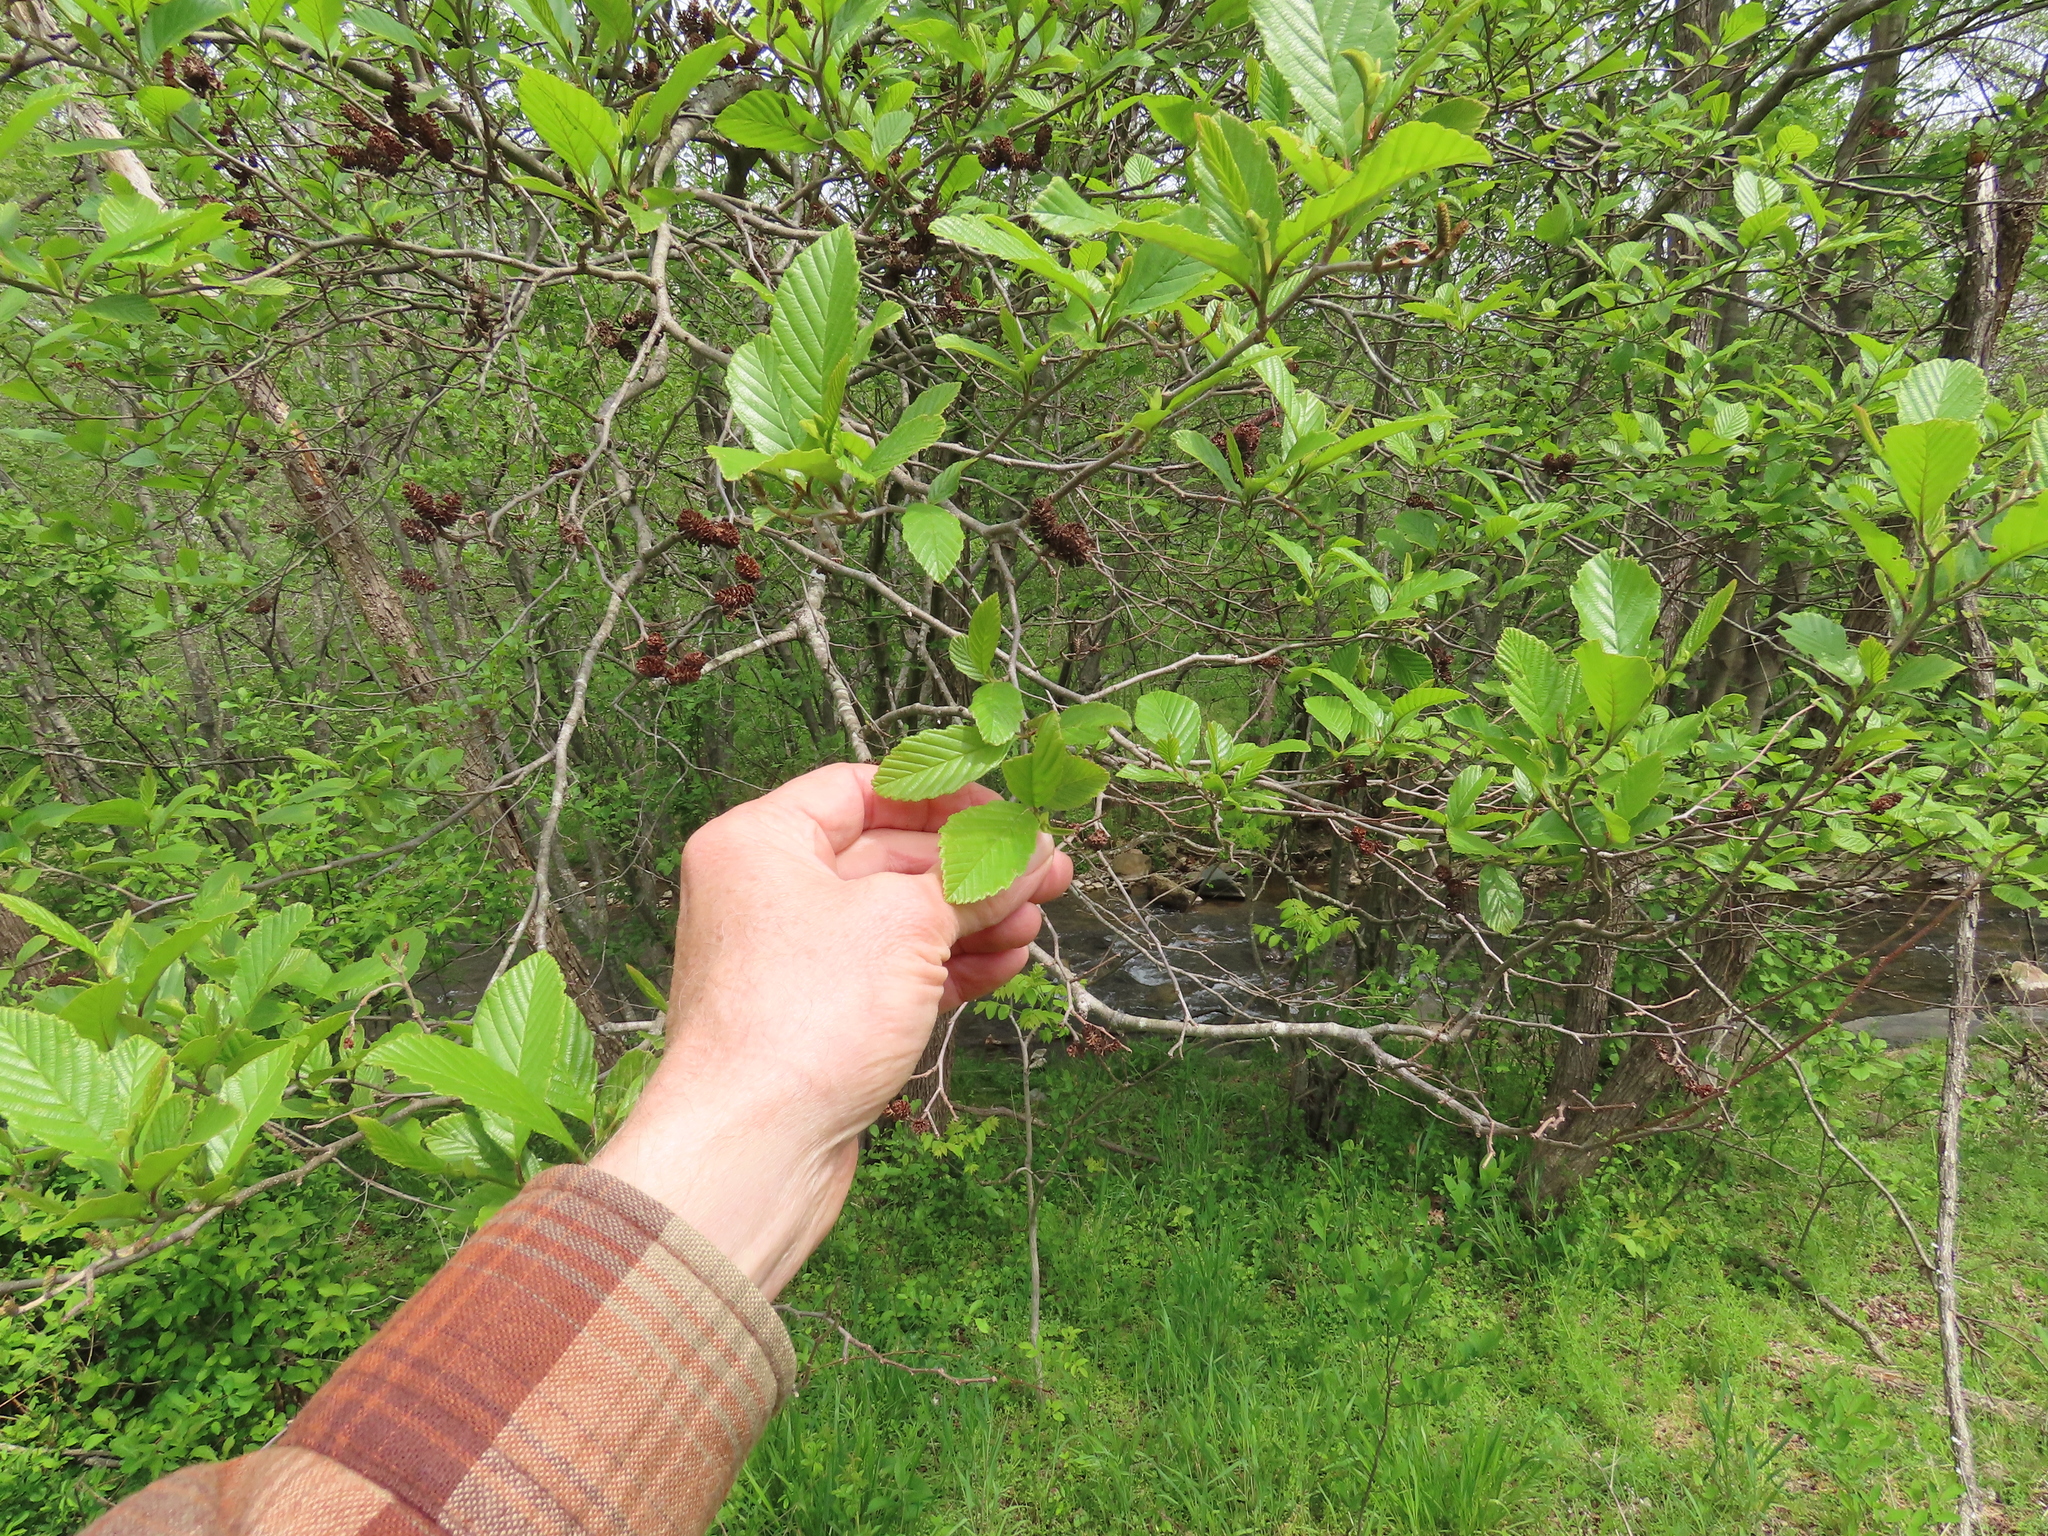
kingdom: Plantae
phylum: Tracheophyta
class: Magnoliopsida
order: Fagales
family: Betulaceae
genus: Alnus
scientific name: Alnus serrulata
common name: Hazel alder
